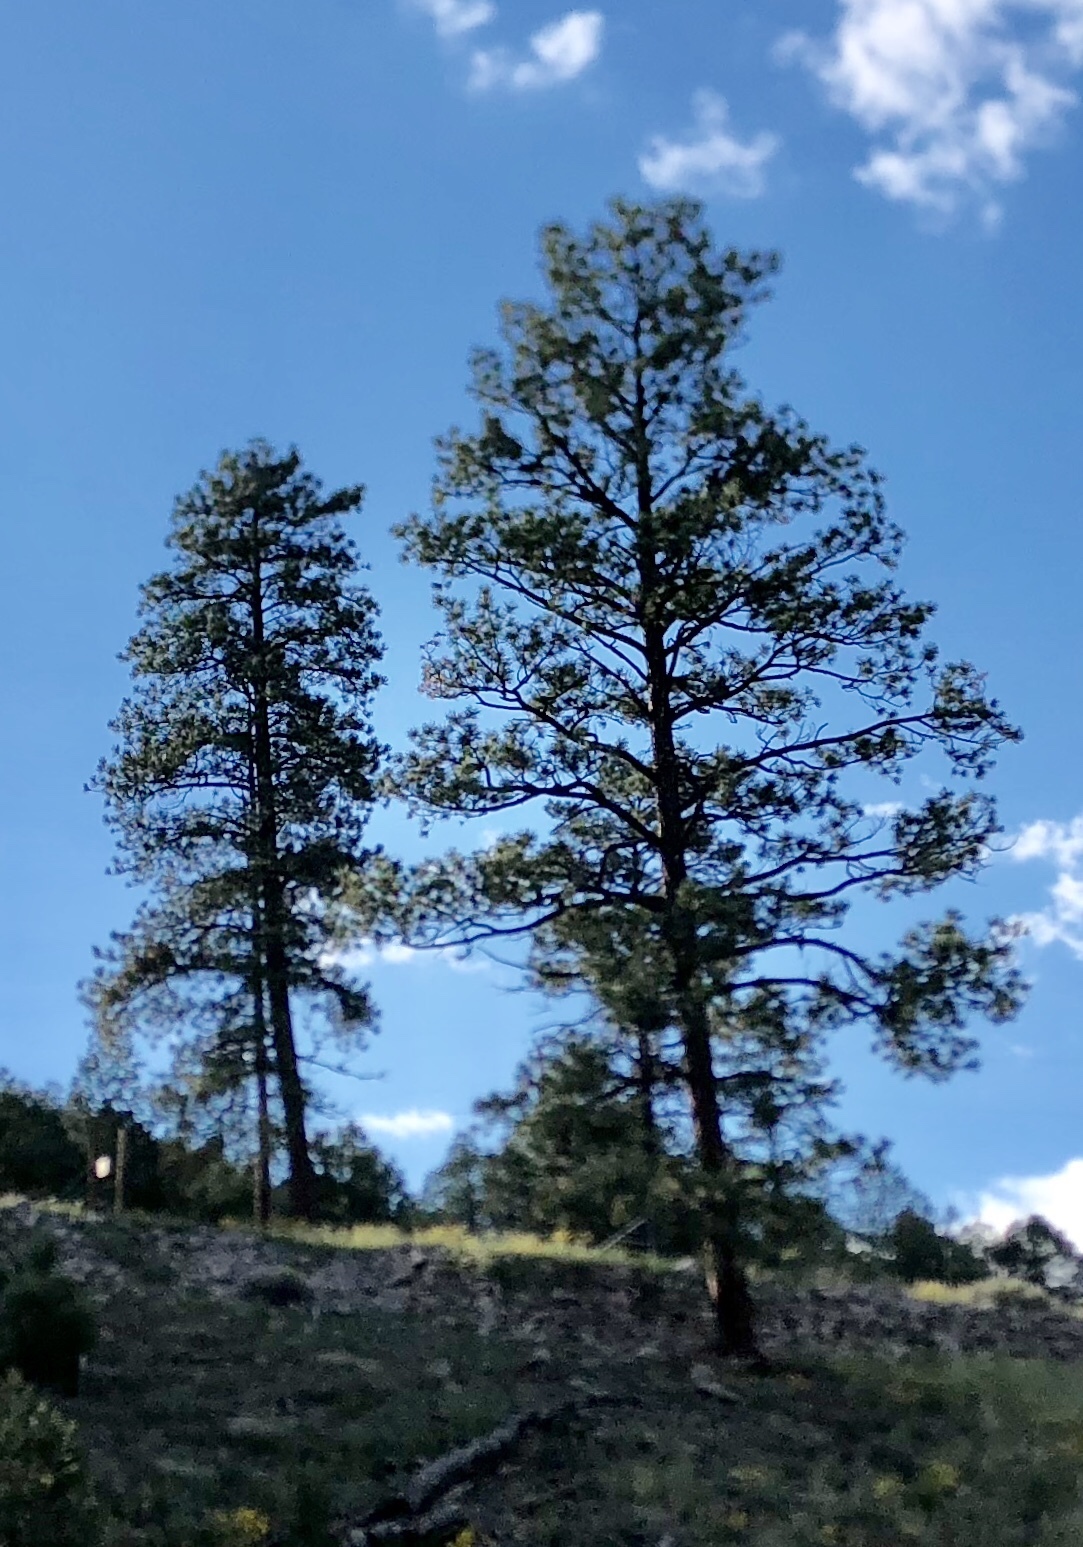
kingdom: Plantae
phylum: Tracheophyta
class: Pinopsida
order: Pinales
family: Pinaceae
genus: Pinus
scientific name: Pinus ponderosa
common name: Western yellow-pine
